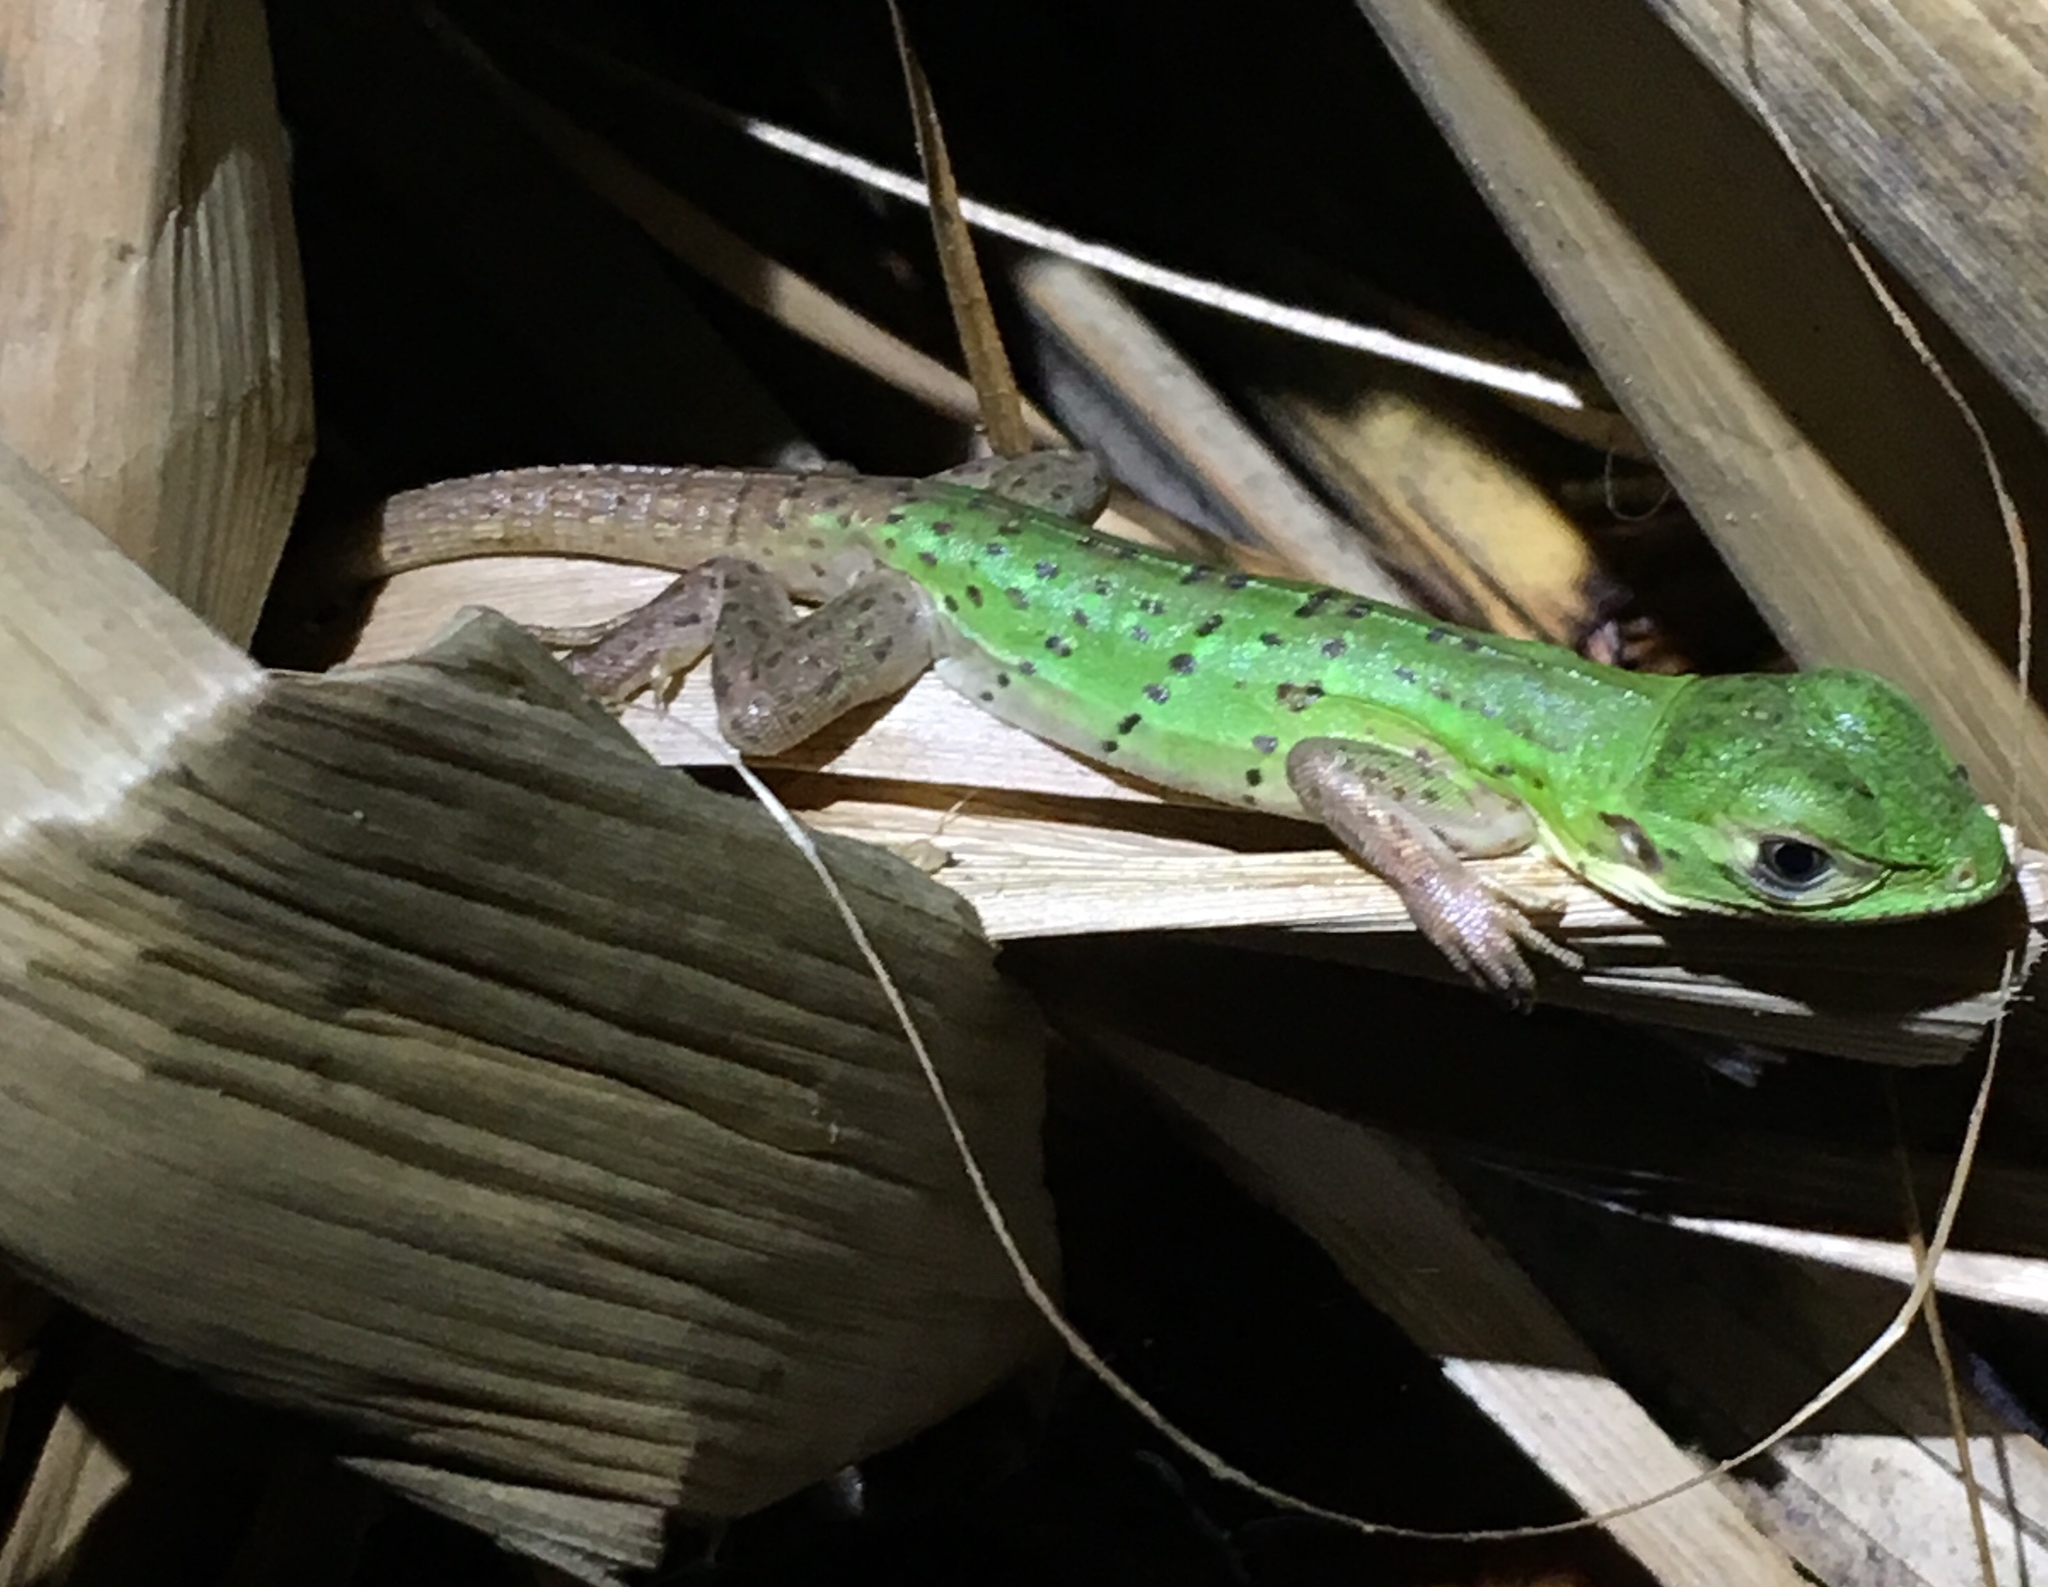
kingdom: Animalia
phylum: Chordata
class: Squamata
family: Iguanidae
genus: Ctenosaura
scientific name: Ctenosaura similis
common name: Black spiny-tailed iguana
